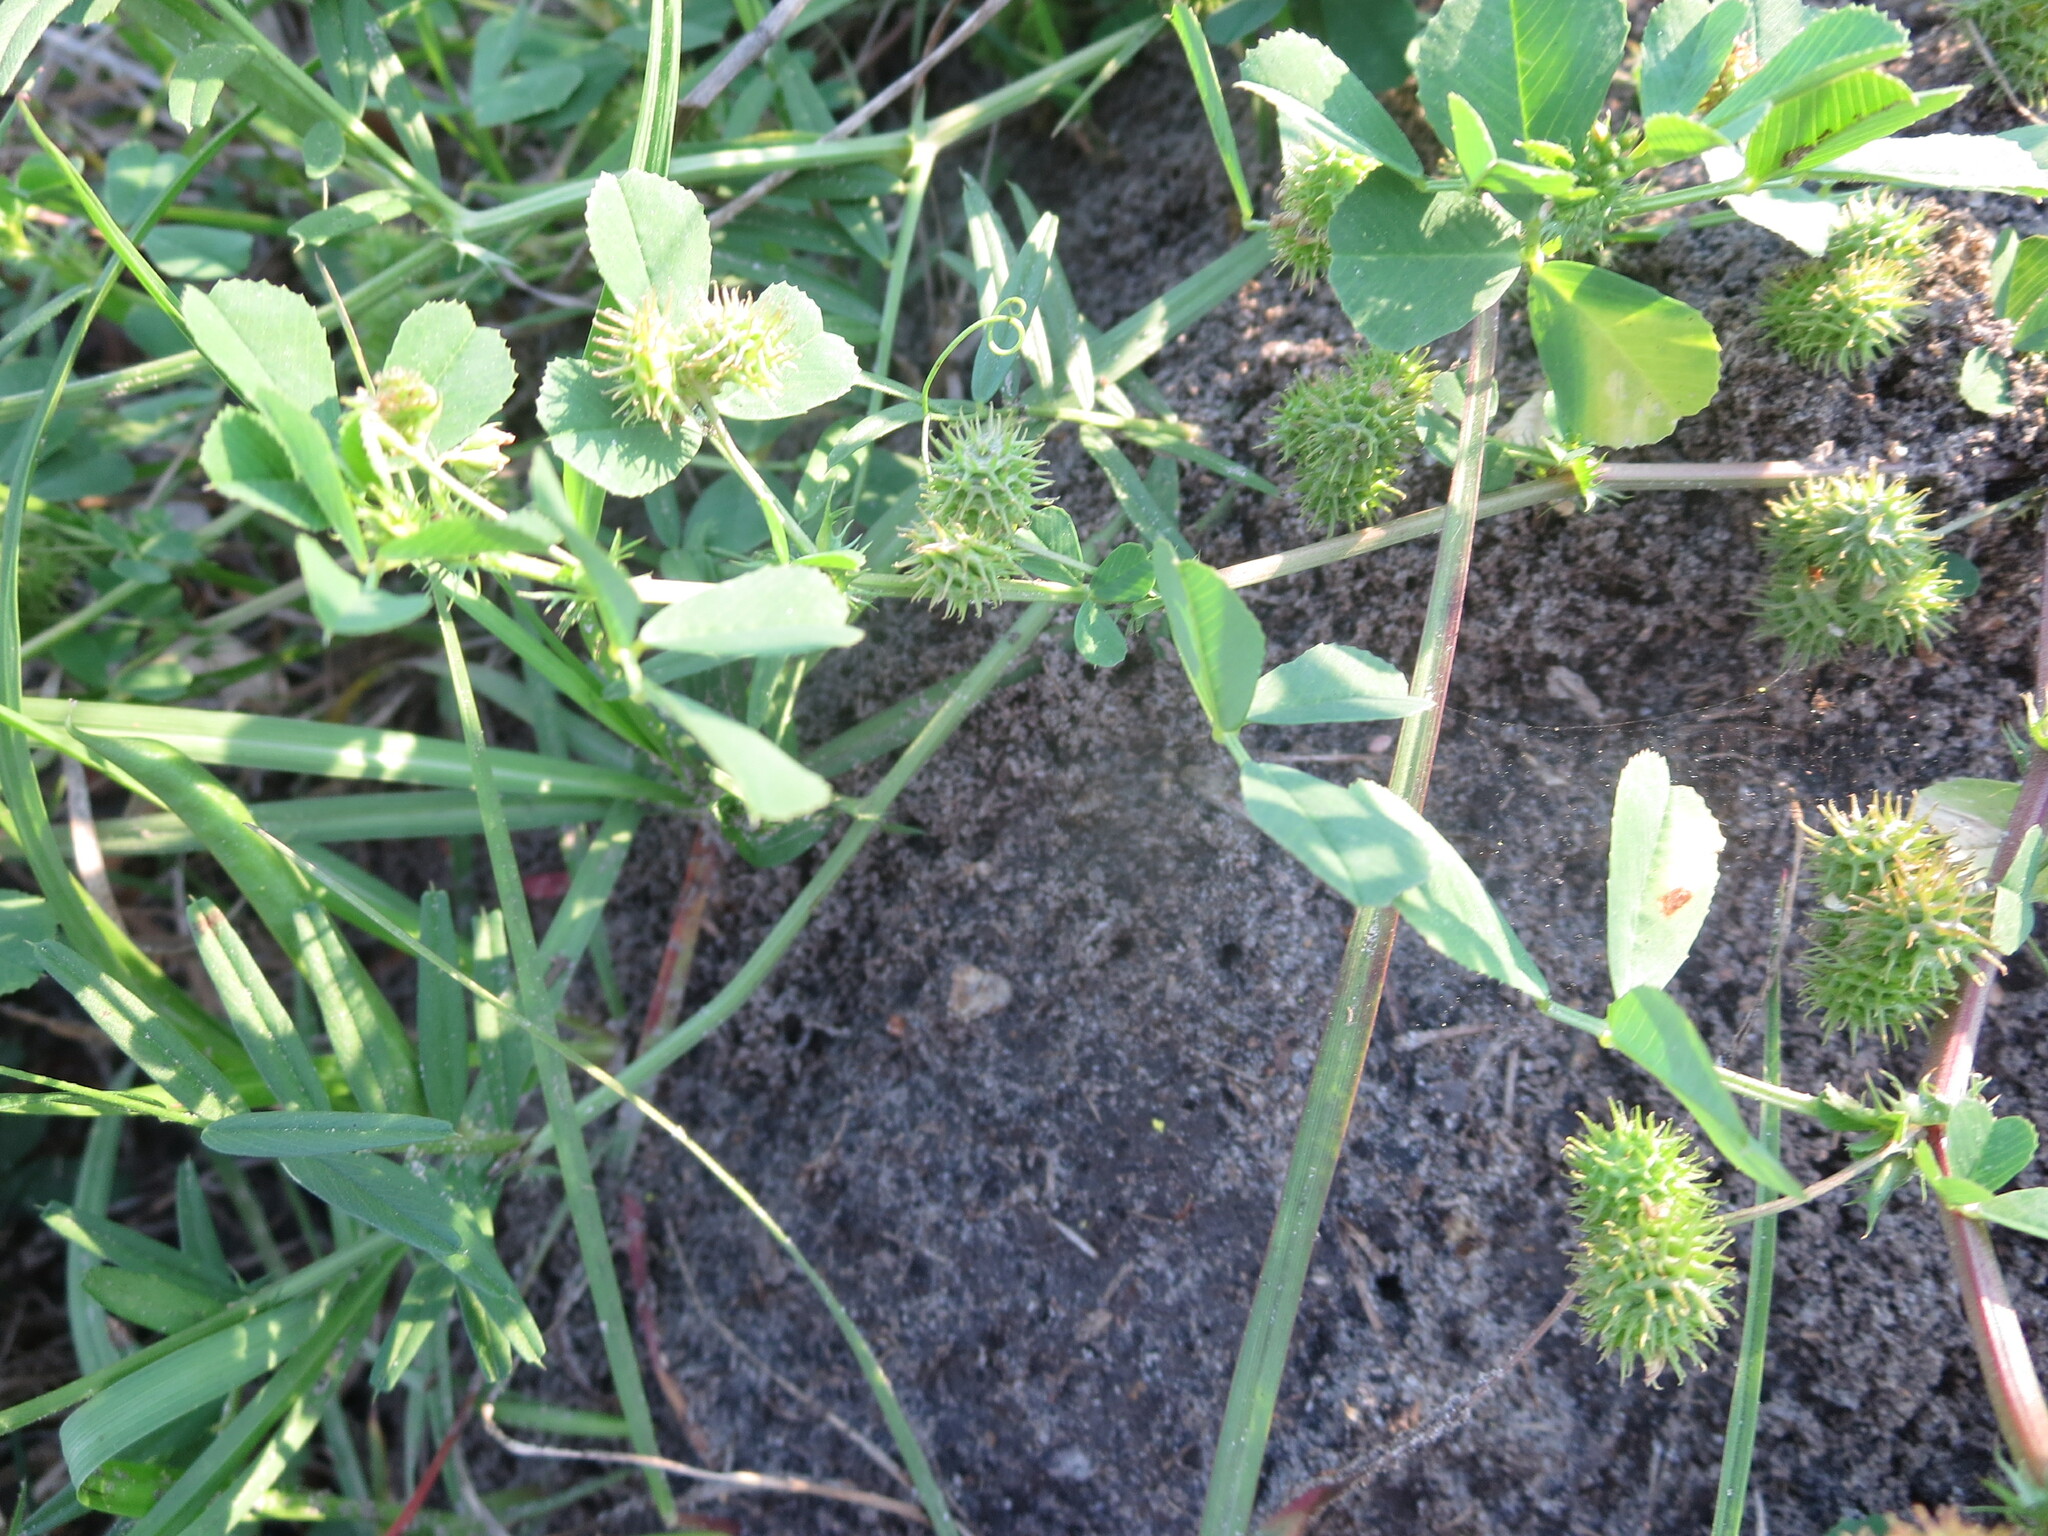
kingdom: Plantae
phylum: Tracheophyta
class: Magnoliopsida
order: Fabales
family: Fabaceae
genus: Medicago
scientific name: Medicago polymorpha
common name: Burclover
